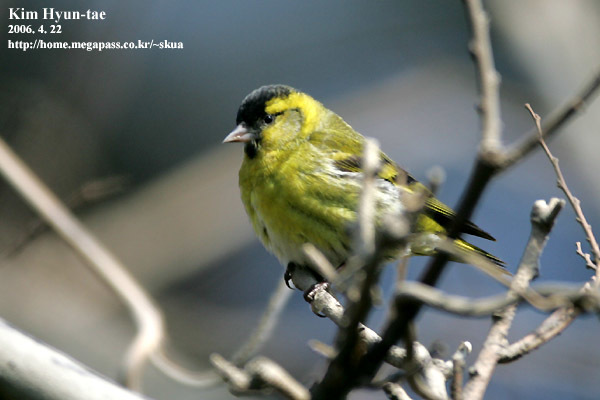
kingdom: Animalia
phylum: Chordata
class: Aves
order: Passeriformes
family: Fringillidae
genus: Spinus
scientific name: Spinus spinus
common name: Eurasian siskin
